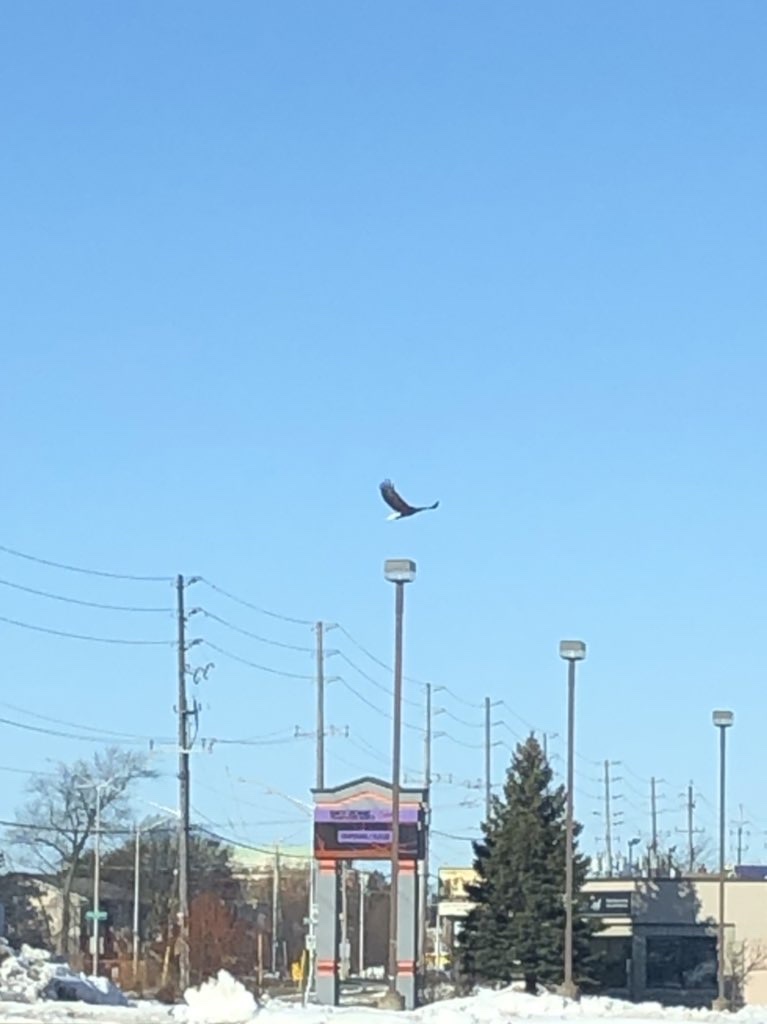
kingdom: Animalia
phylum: Chordata
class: Aves
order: Accipitriformes
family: Accipitridae
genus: Haliaeetus
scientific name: Haliaeetus leucocephalus
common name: Bald eagle
